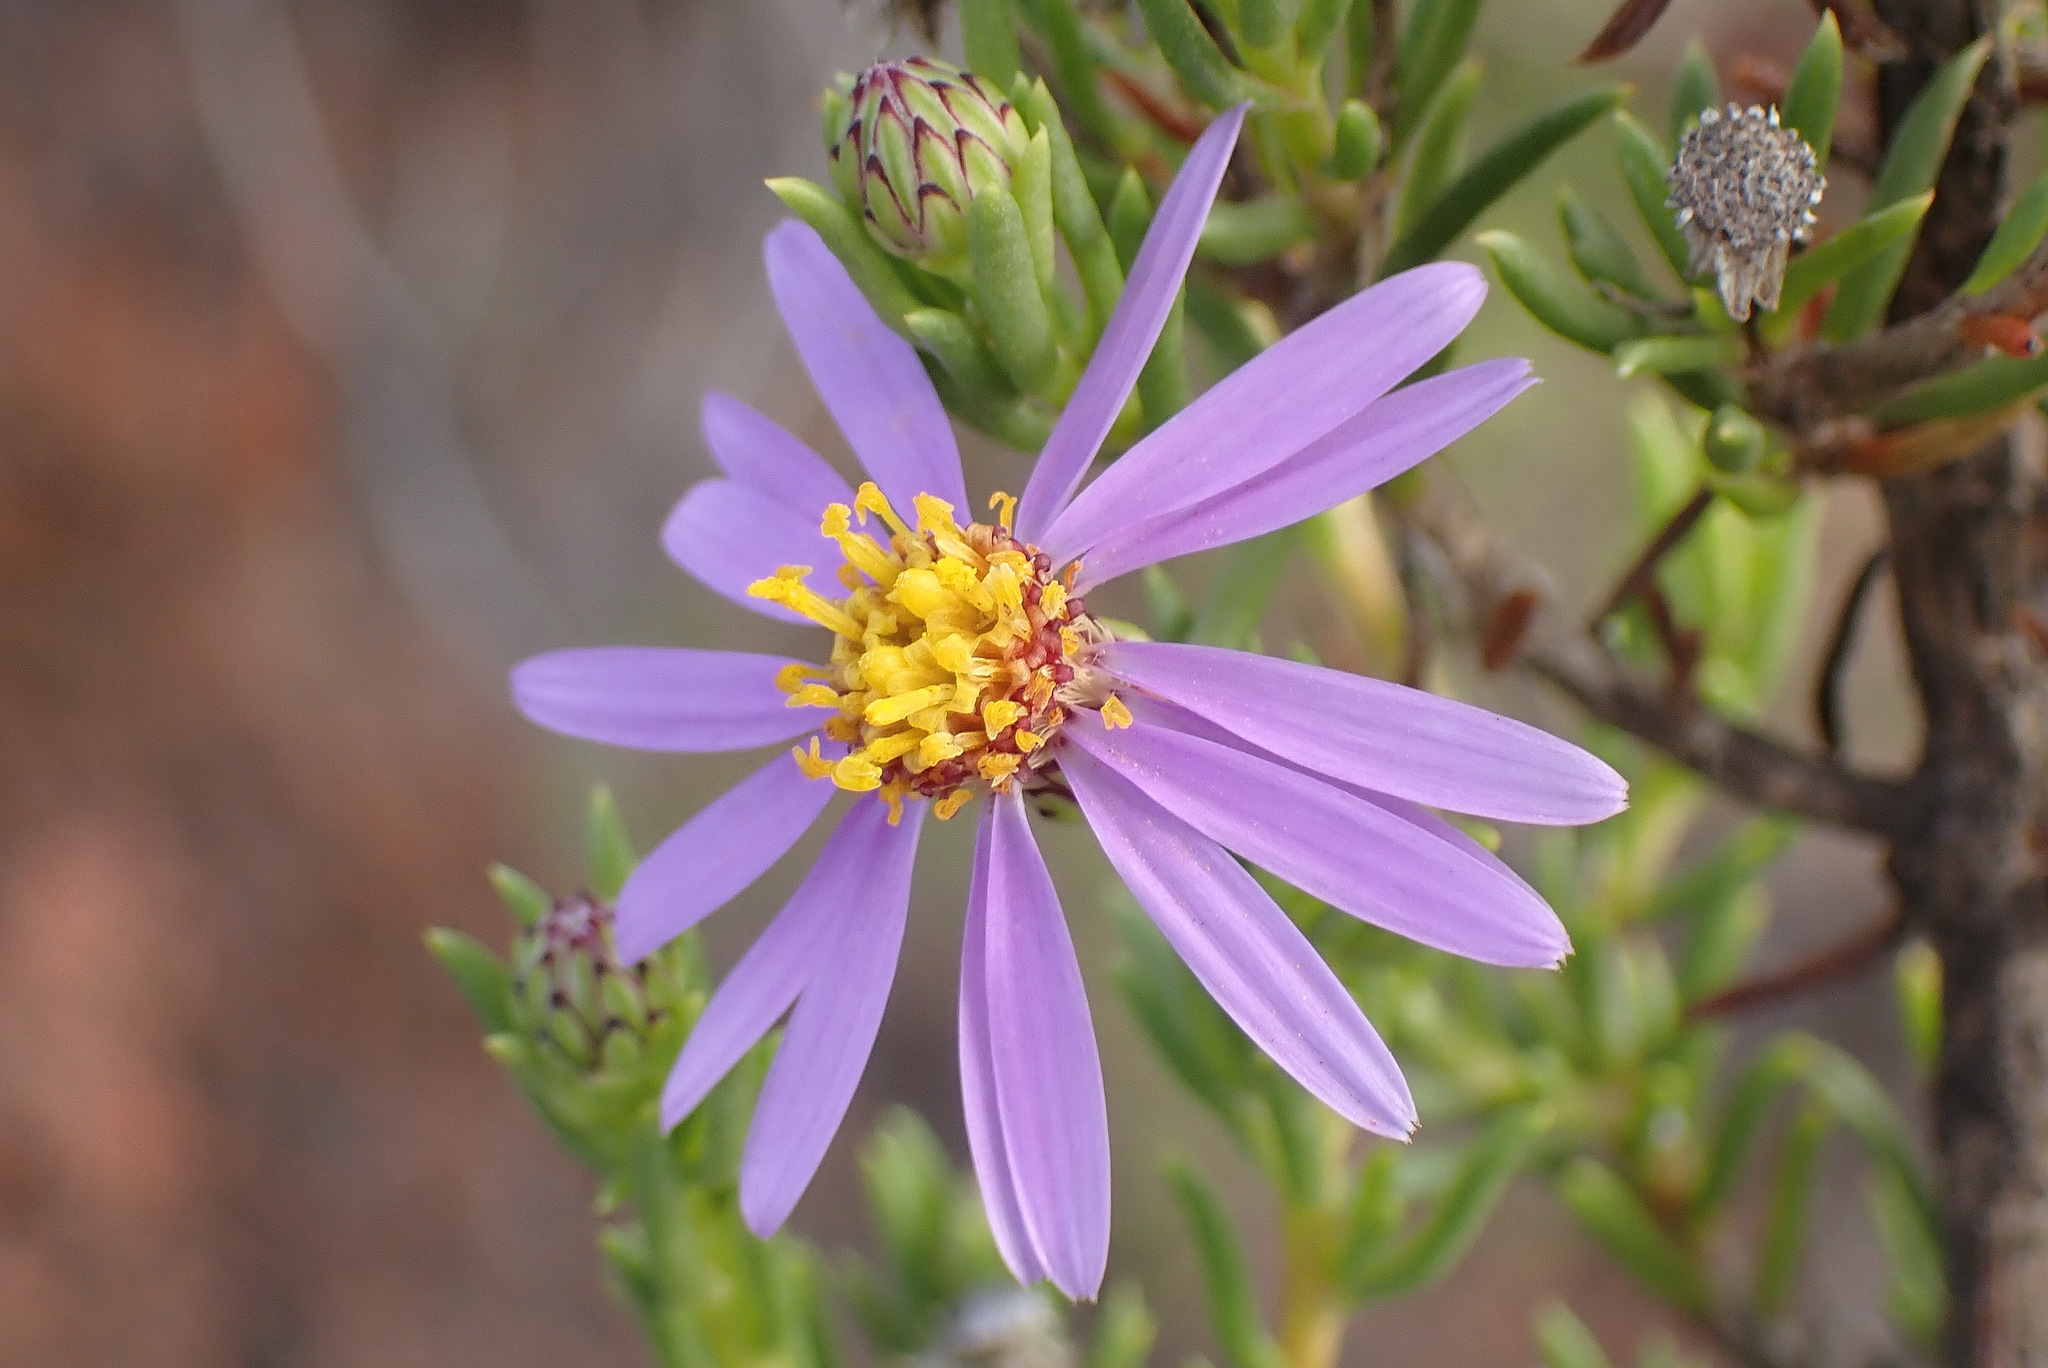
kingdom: Plantae
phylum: Tracheophyta
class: Magnoliopsida
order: Asterales
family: Asteraceae
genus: Felicia
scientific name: Felicia filifolia
